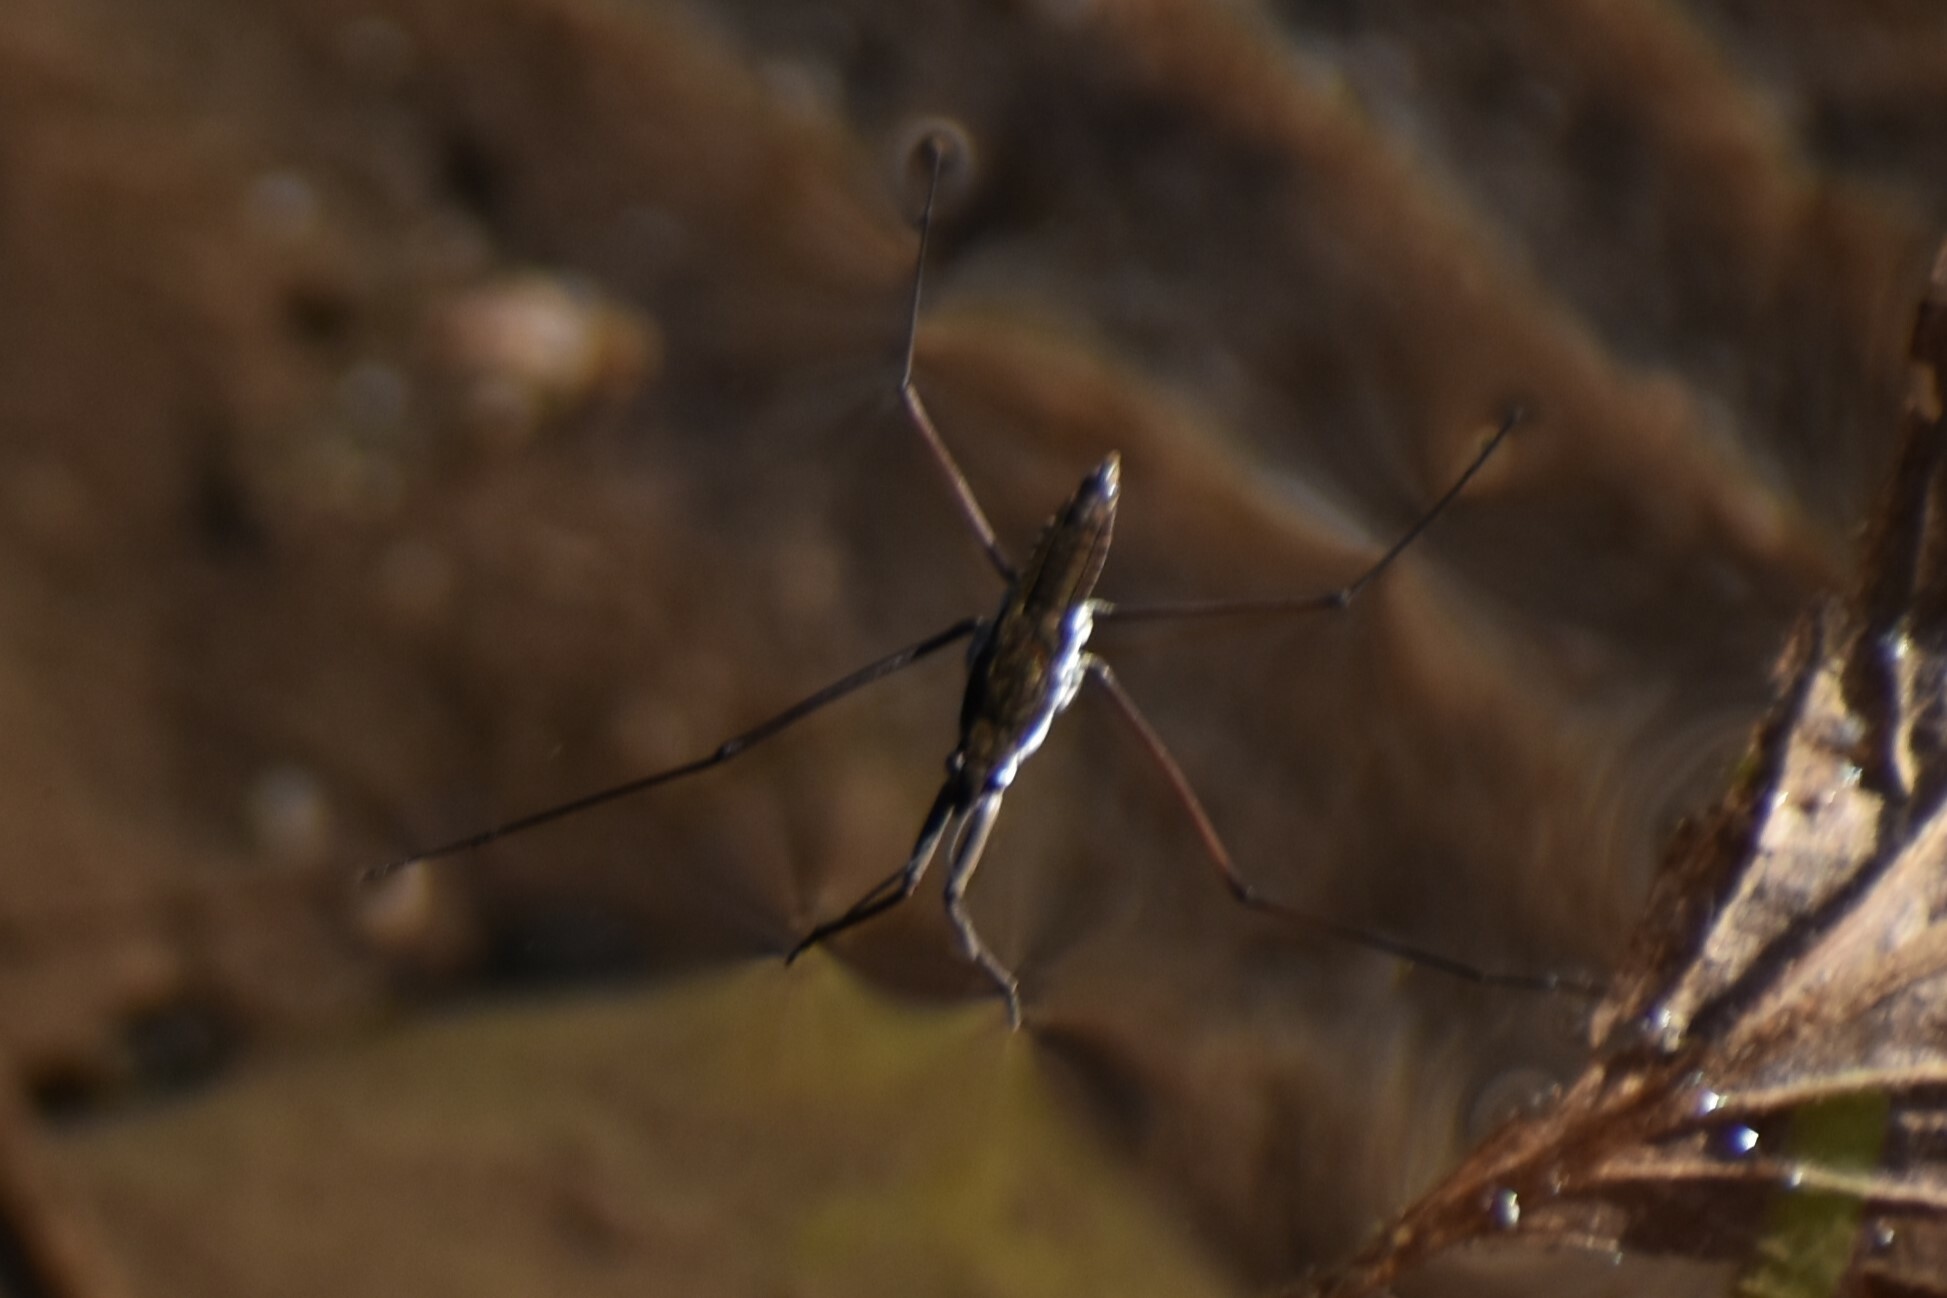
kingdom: Animalia
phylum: Arthropoda
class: Insecta
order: Hemiptera
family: Gerridae
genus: Aquarius
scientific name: Aquarius remigis
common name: Common water strider
